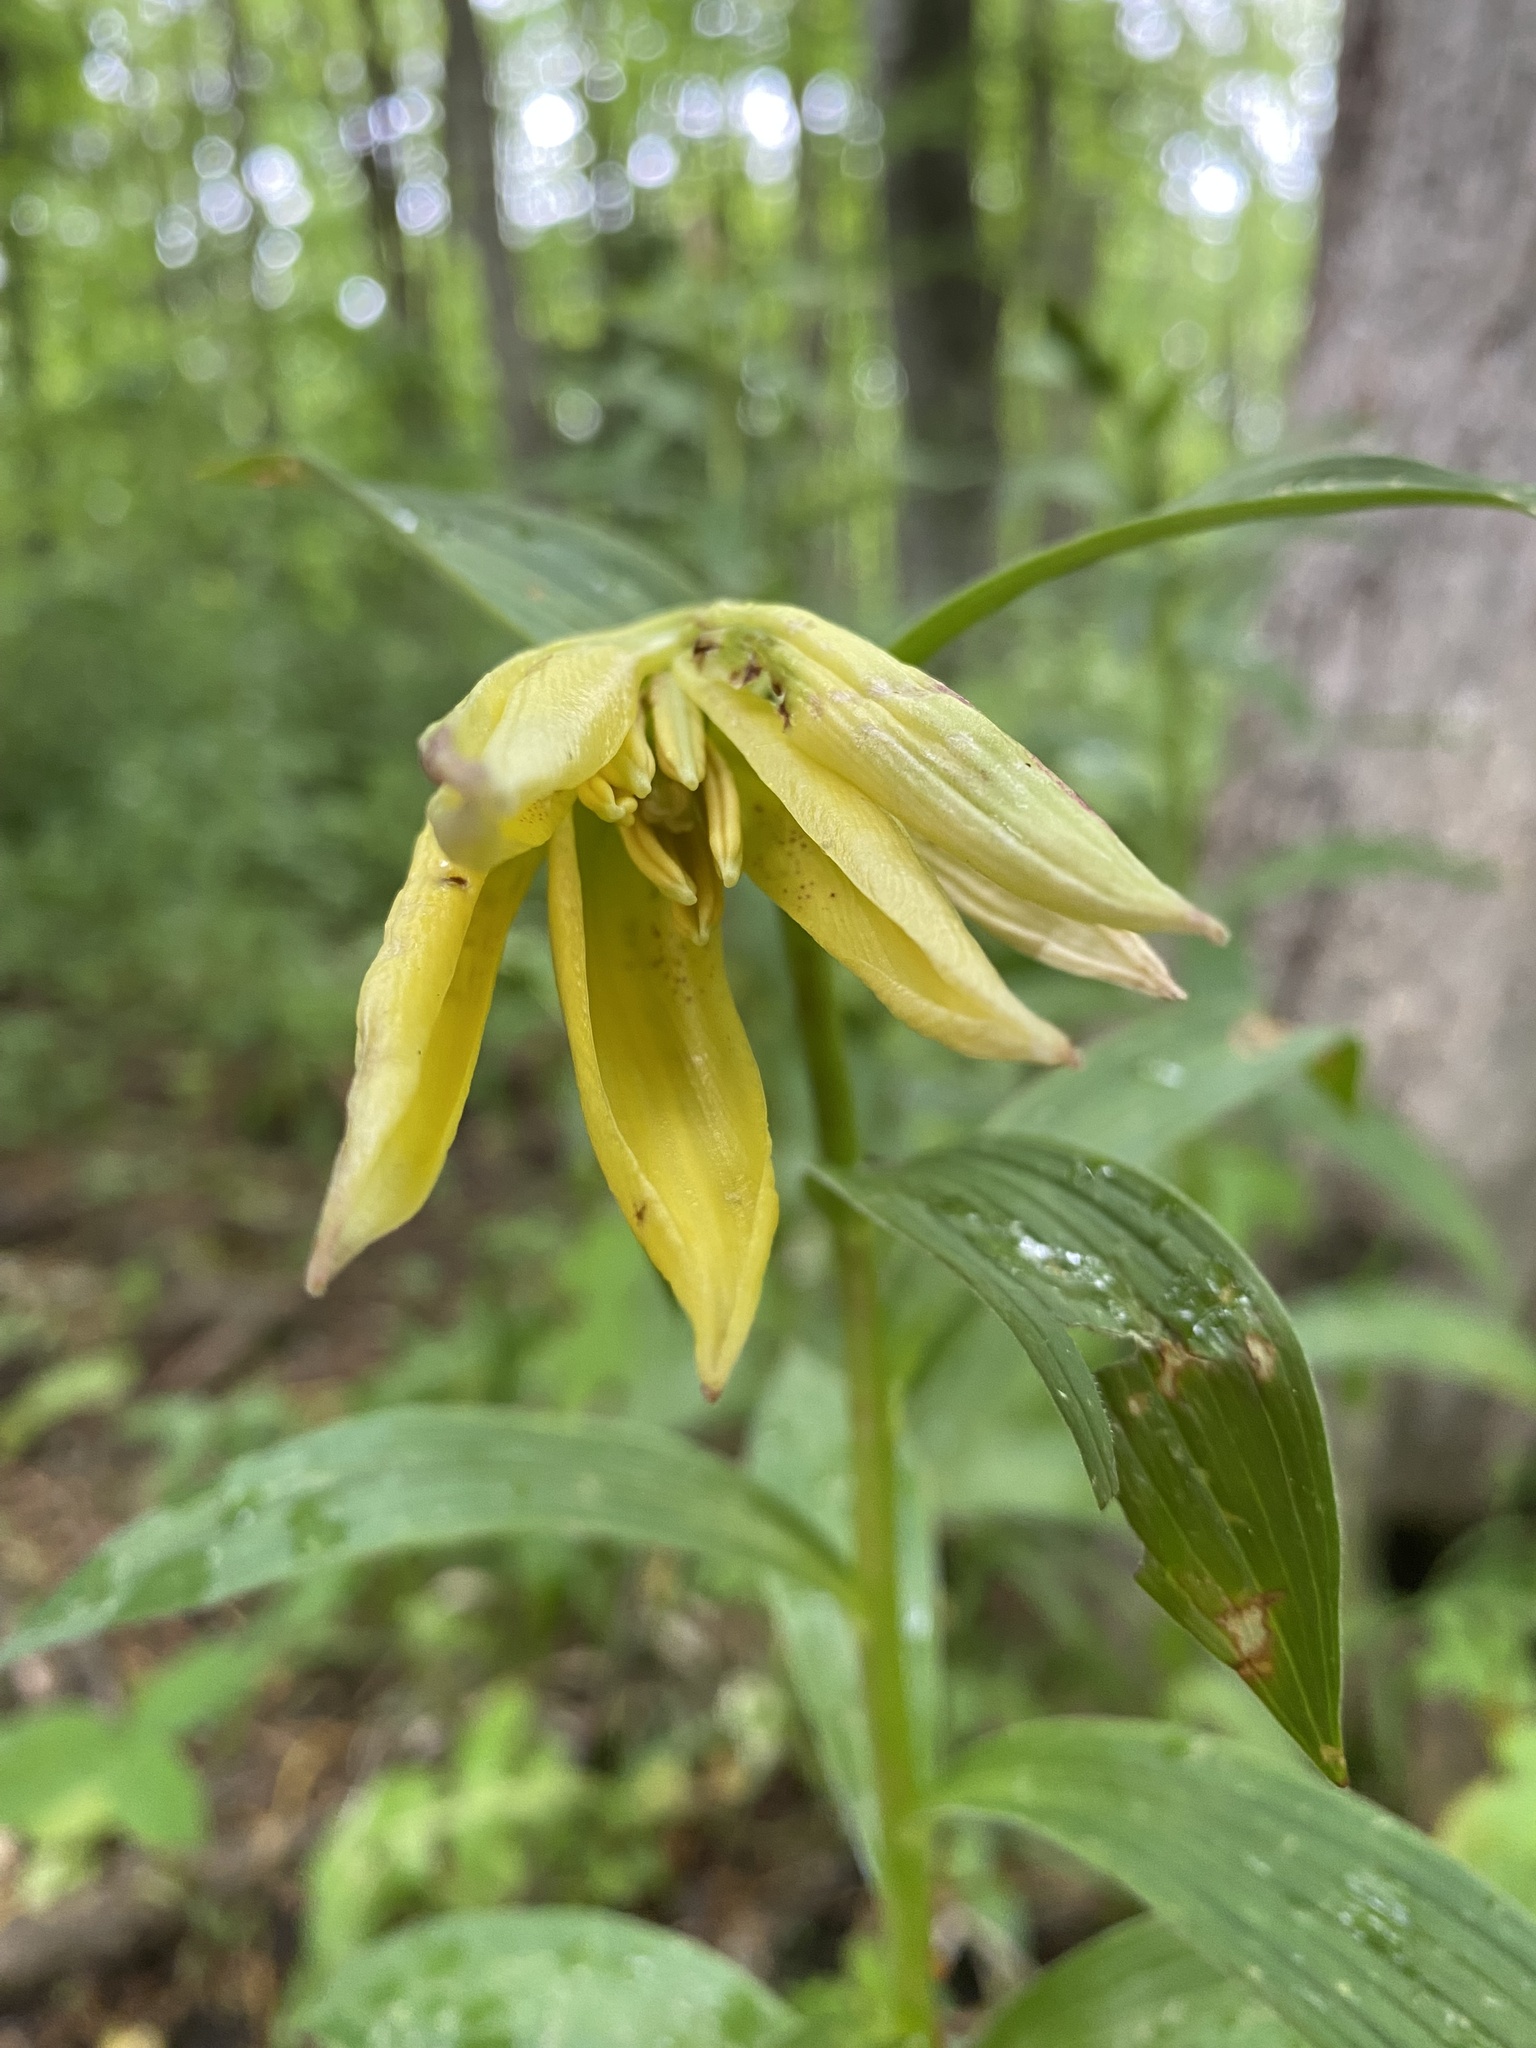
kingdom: Plantae
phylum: Tracheophyta
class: Liliopsida
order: Liliales
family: Liliaceae
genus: Lilium
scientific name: Lilium monadelphum
